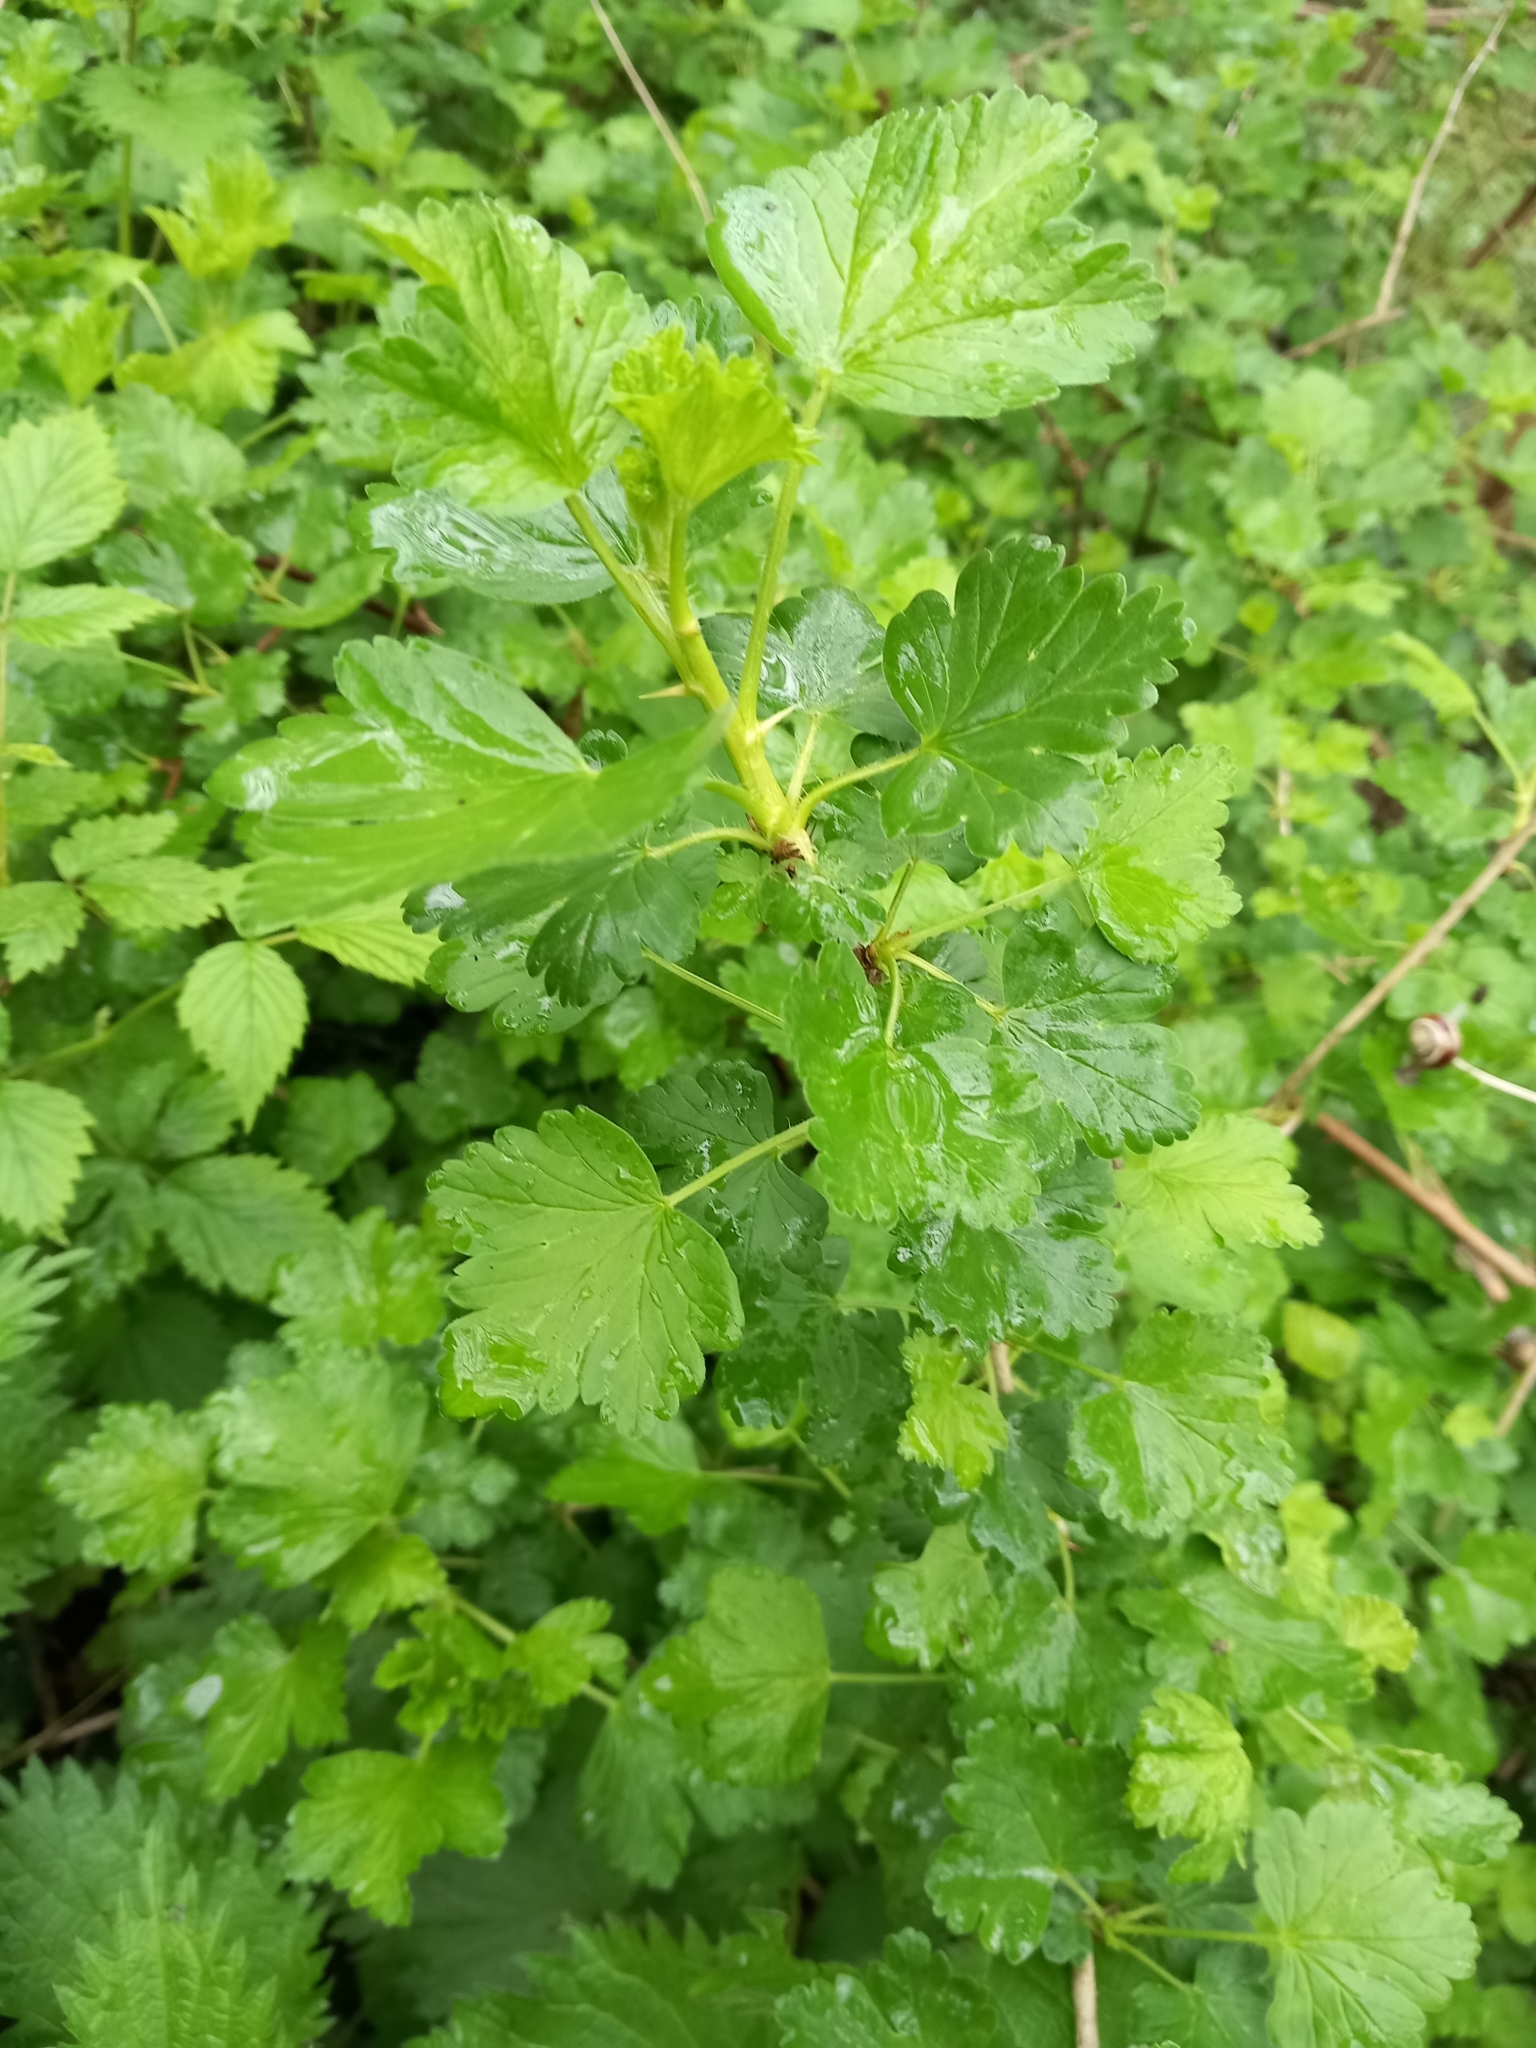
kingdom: Plantae
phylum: Tracheophyta
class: Magnoliopsida
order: Saxifragales
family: Grossulariaceae
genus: Ribes
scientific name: Ribes uva-crispa
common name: Gooseberry
